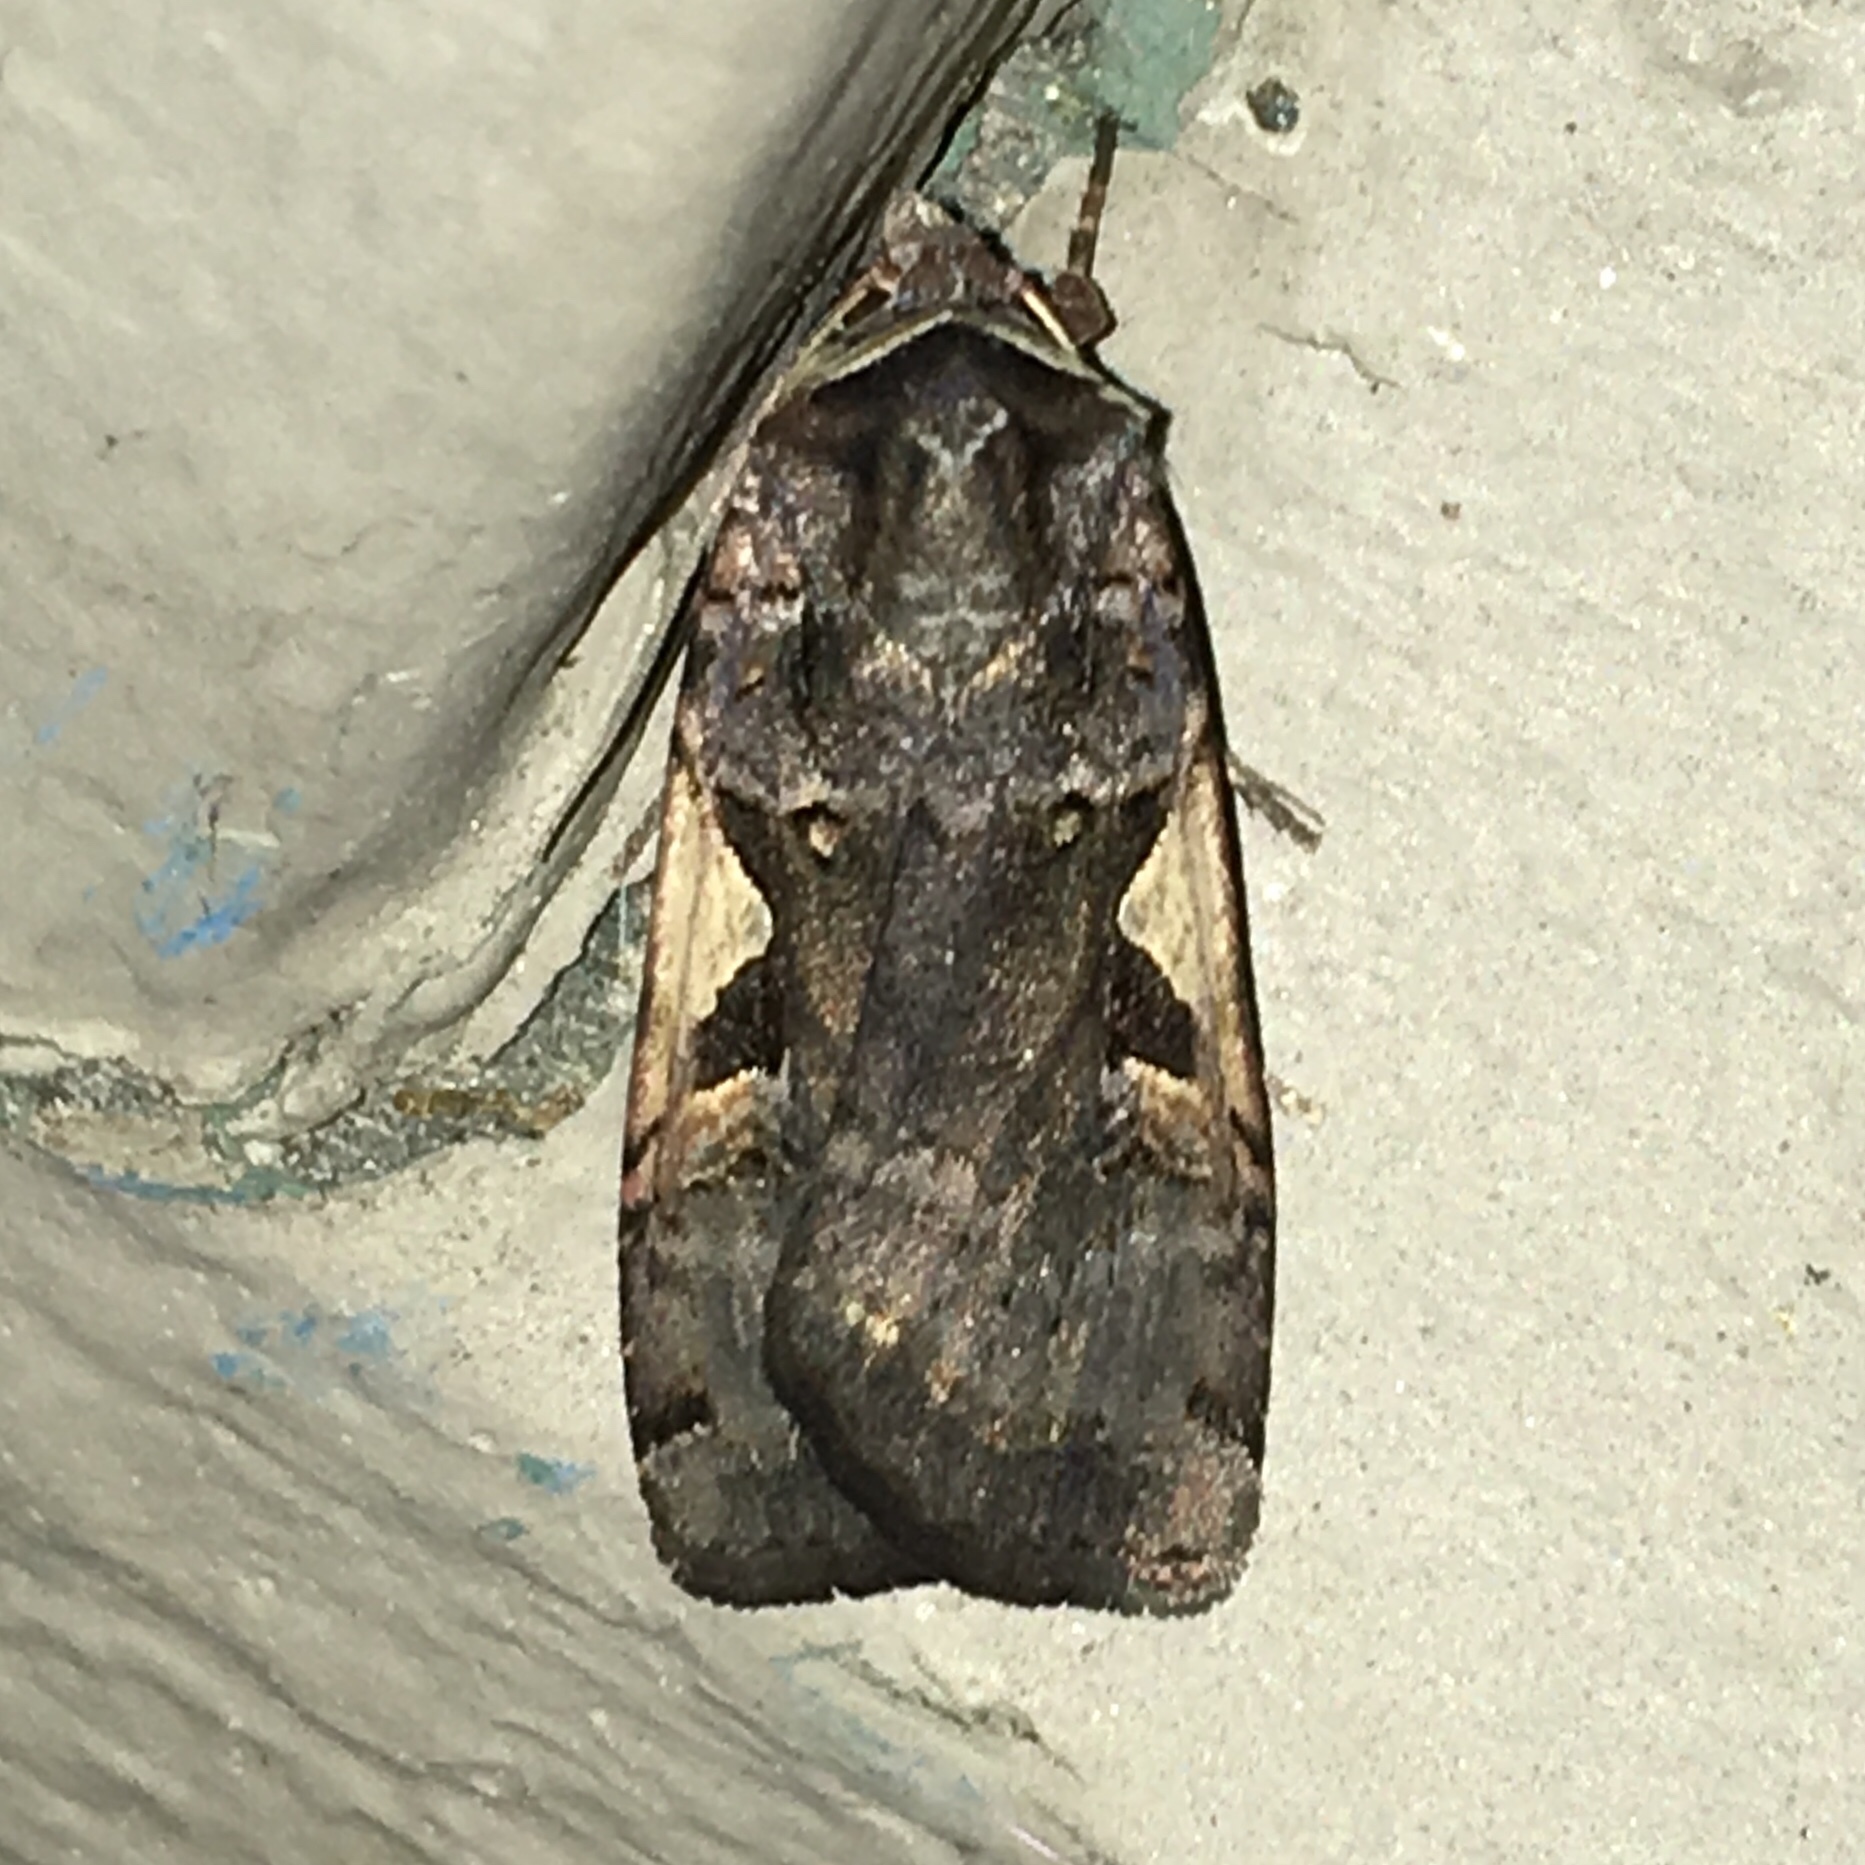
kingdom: Animalia
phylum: Arthropoda
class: Insecta
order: Lepidoptera
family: Noctuidae
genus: Xestia
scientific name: Xestia dolosa
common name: Cutworm moth
